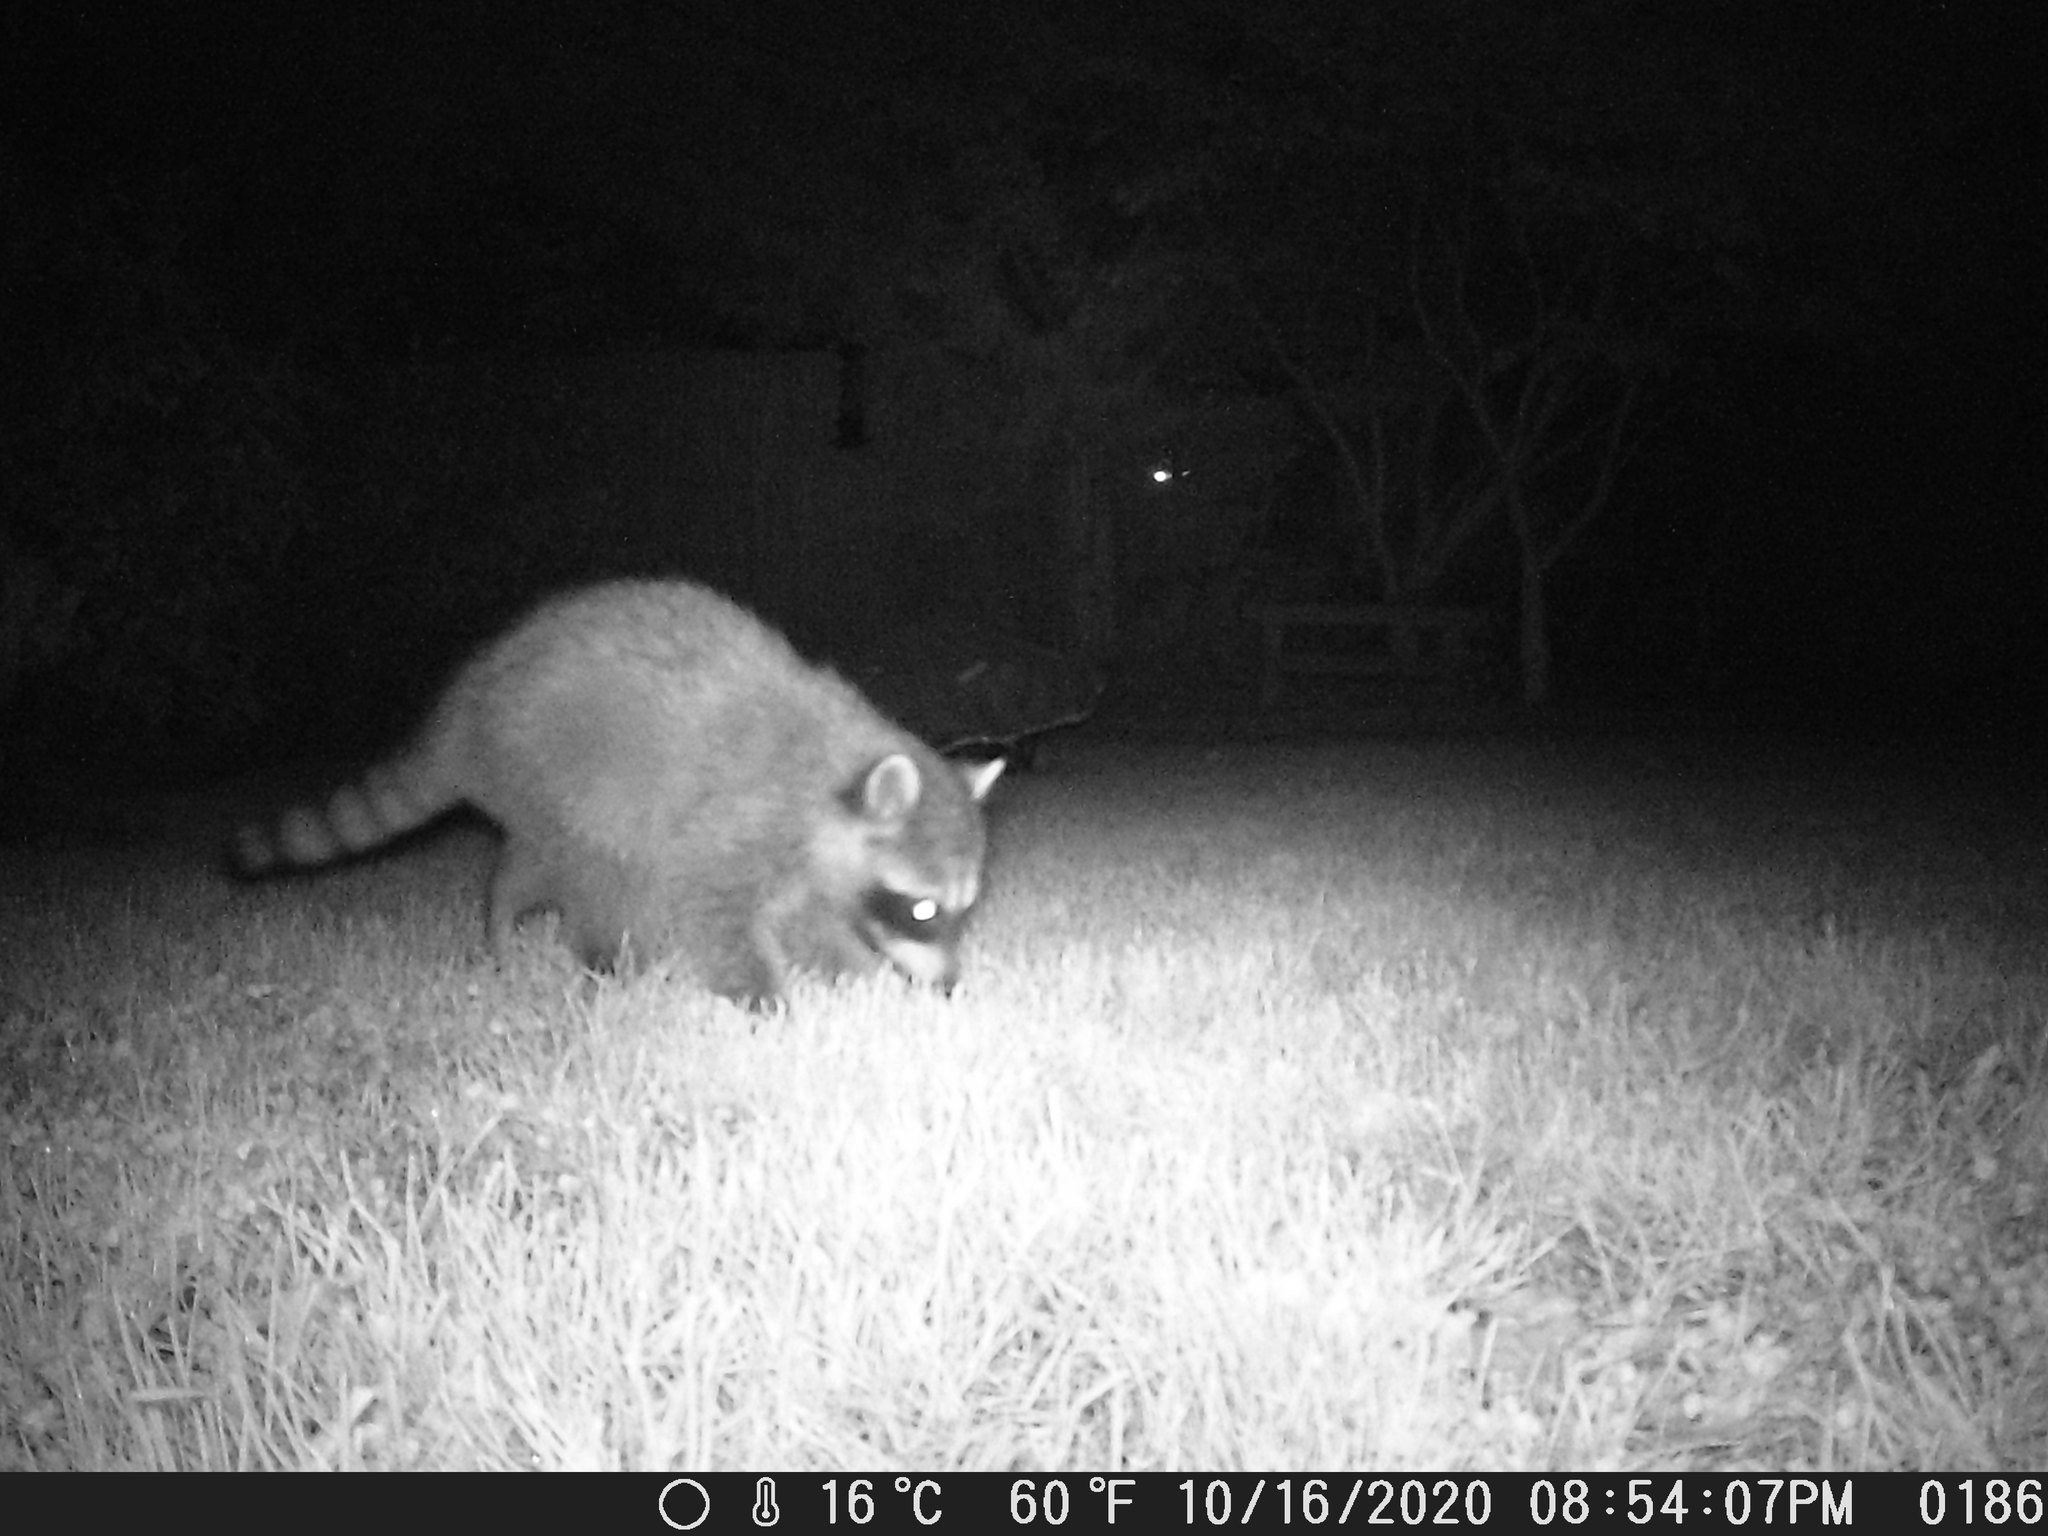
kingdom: Animalia
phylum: Chordata
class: Mammalia
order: Carnivora
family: Procyonidae
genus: Procyon
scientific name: Procyon lotor
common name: Raccoon
